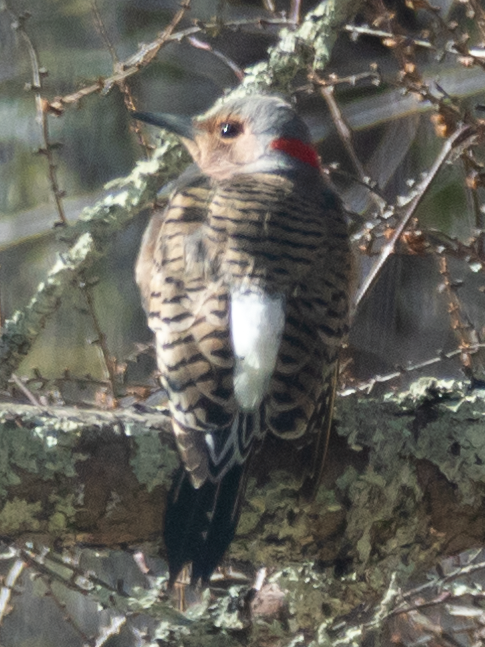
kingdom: Animalia
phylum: Chordata
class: Aves
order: Piciformes
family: Picidae
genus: Colaptes
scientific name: Colaptes auratus
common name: Northern flicker
